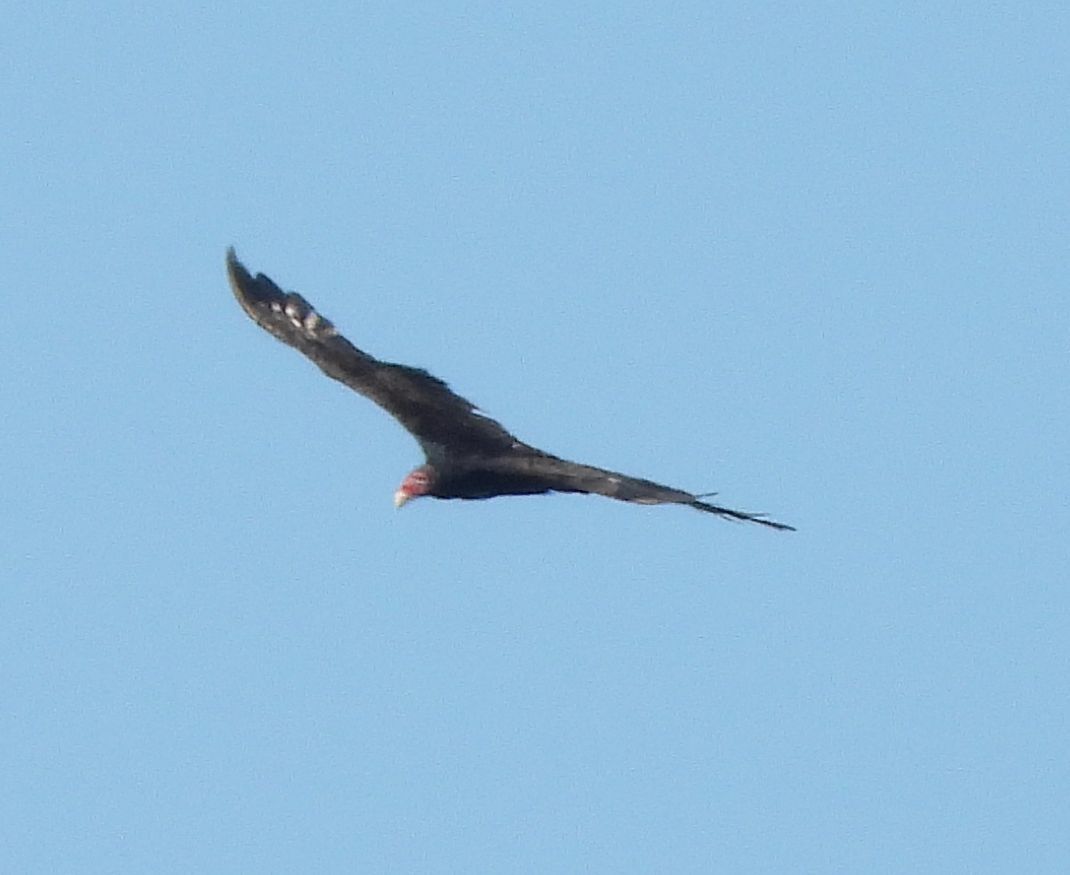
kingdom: Animalia
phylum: Chordata
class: Aves
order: Accipitriformes
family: Cathartidae
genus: Cathartes
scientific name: Cathartes aura
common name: Turkey vulture
